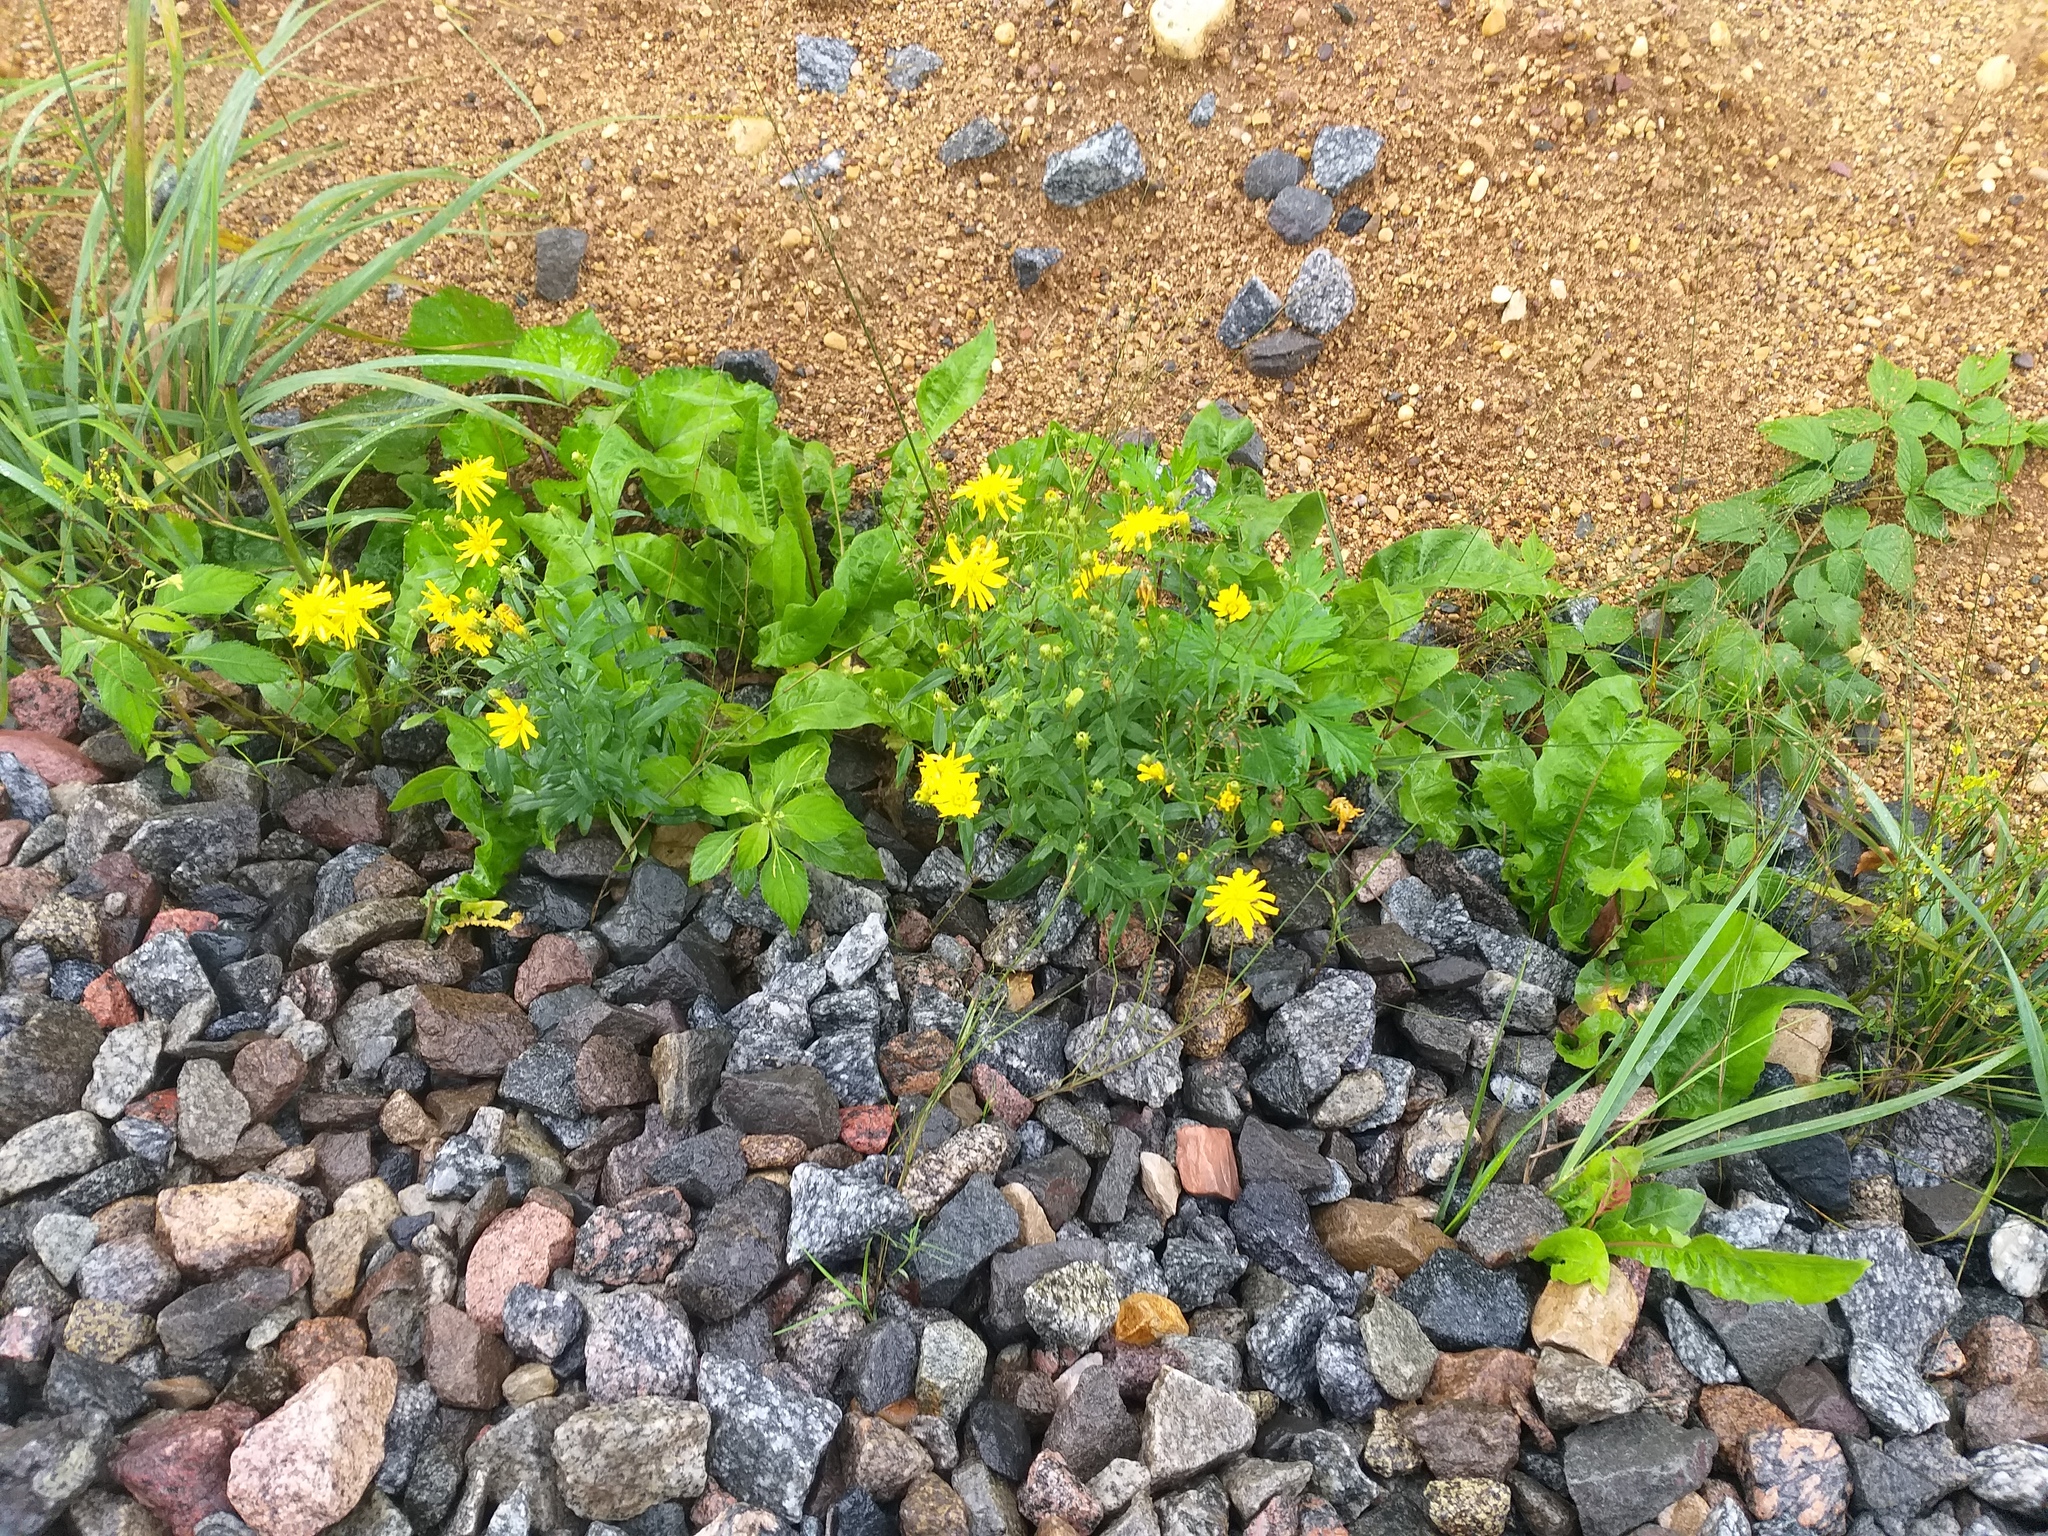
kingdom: Plantae
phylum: Tracheophyta
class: Magnoliopsida
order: Asterales
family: Asteraceae
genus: Hieracium
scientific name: Hieracium umbellatum
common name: Northern hawkweed
